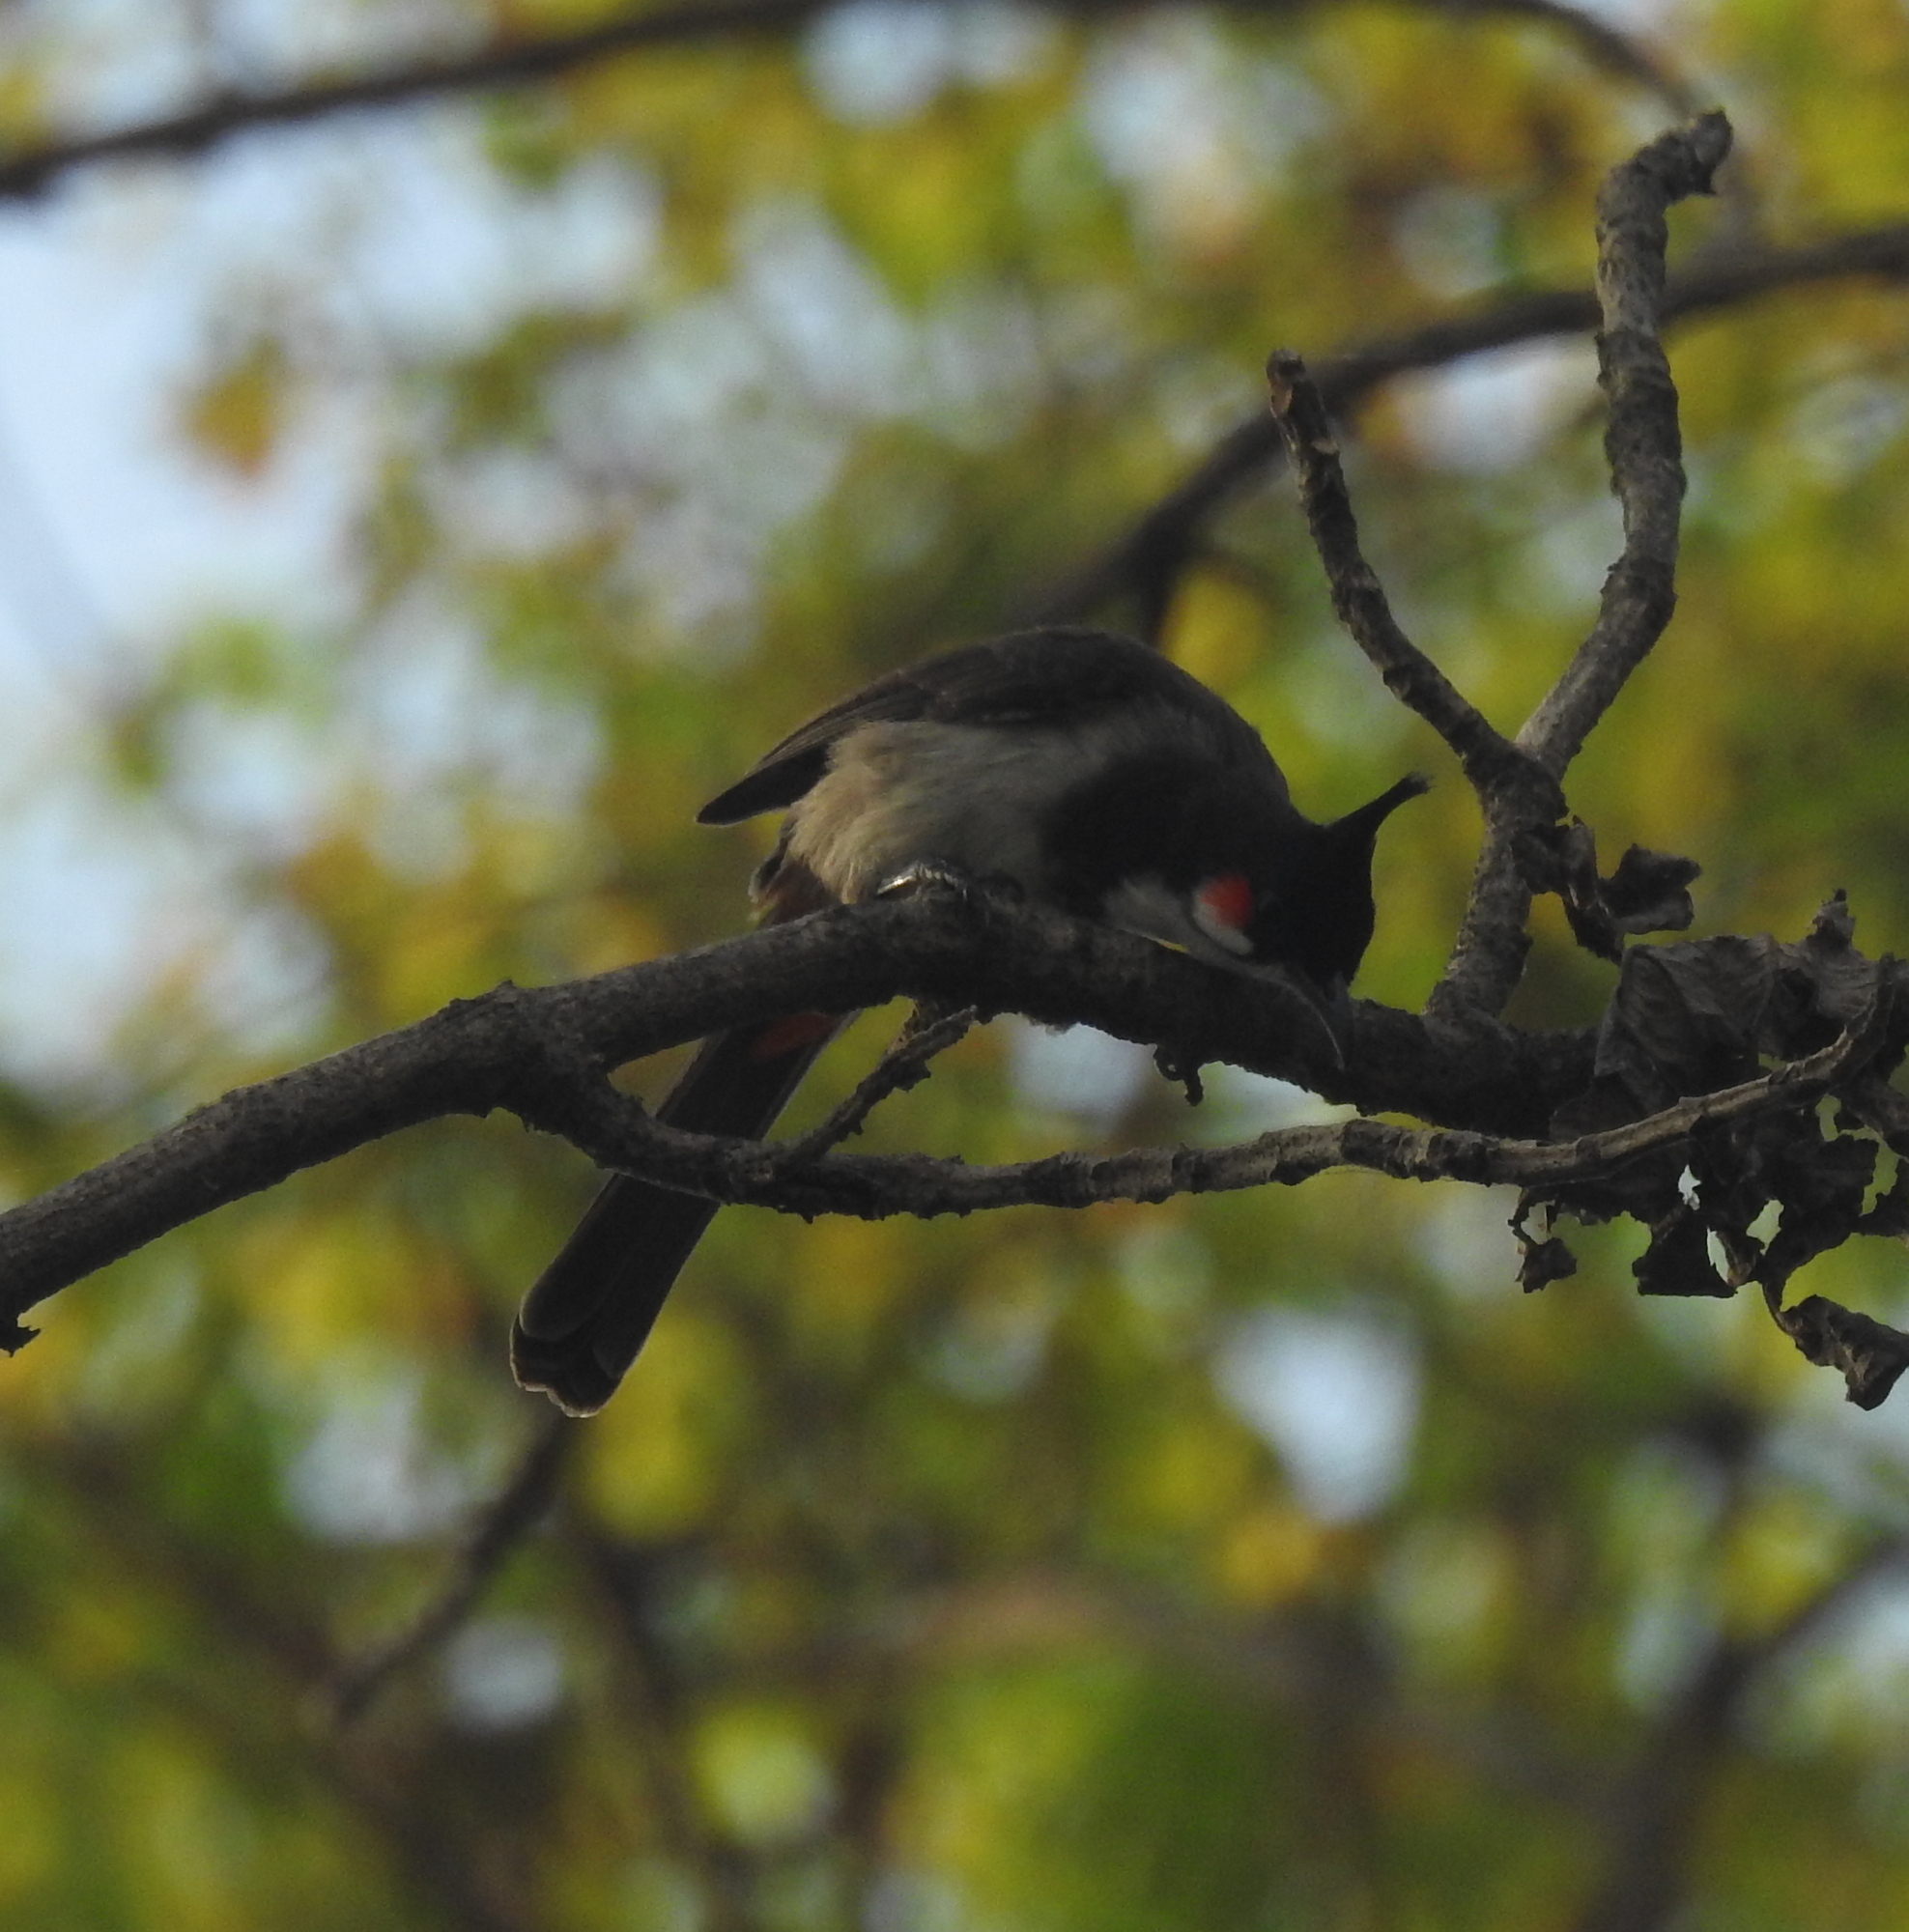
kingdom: Animalia
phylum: Chordata
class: Aves
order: Passeriformes
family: Pycnonotidae
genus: Pycnonotus
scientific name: Pycnonotus jocosus
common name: Red-whiskered bulbul
